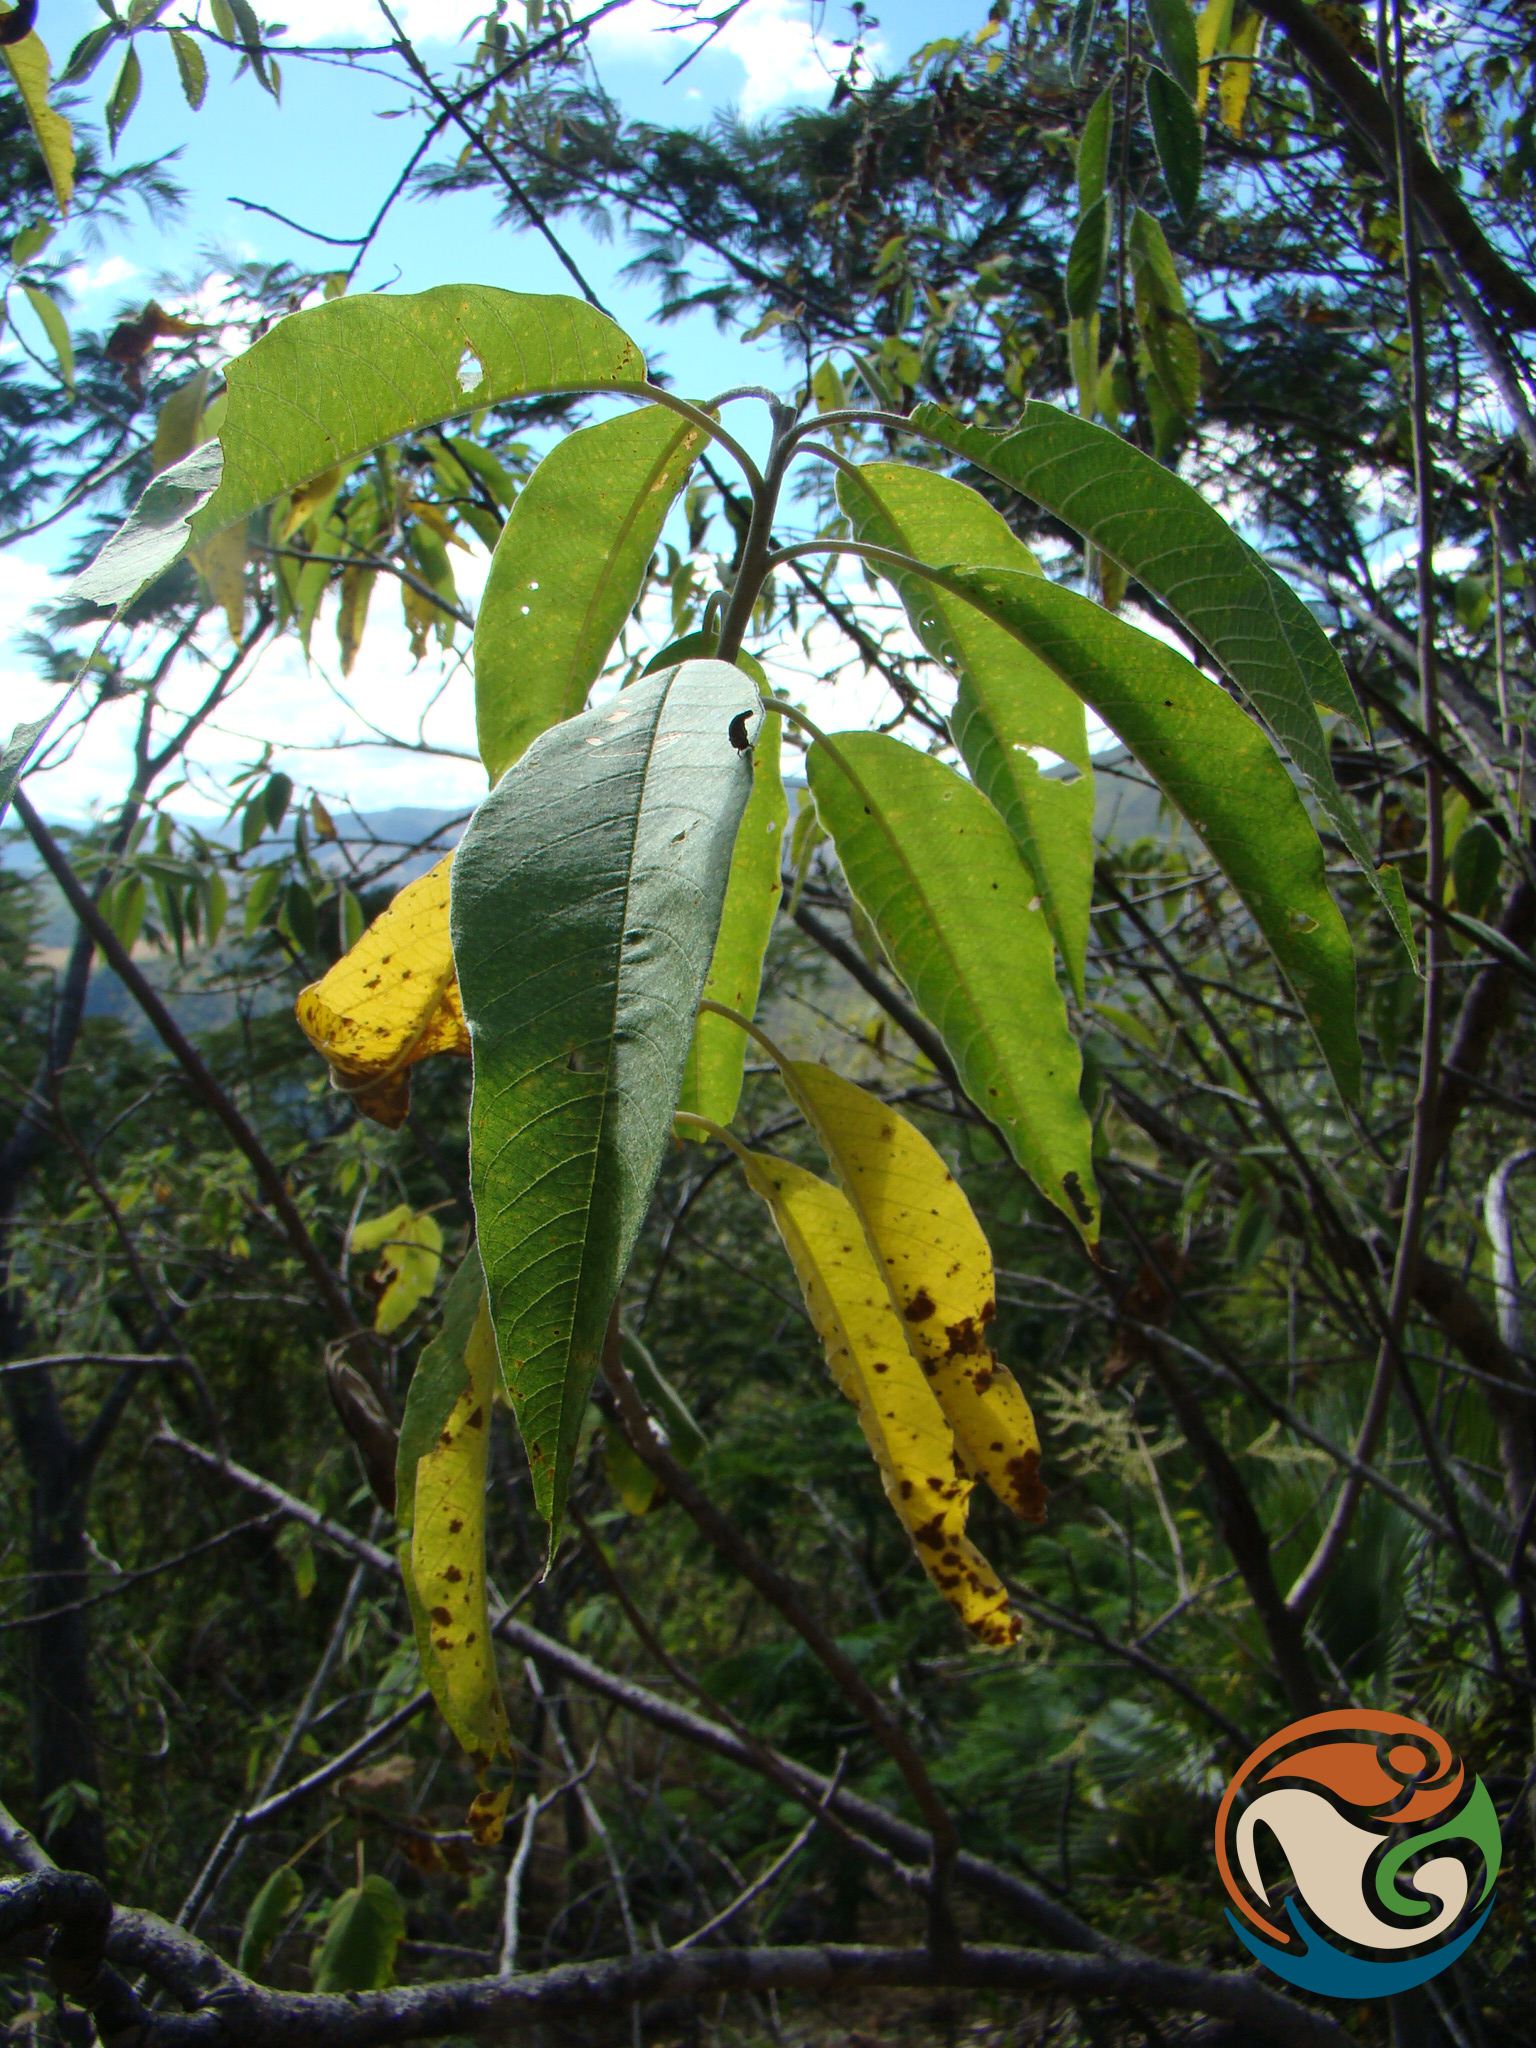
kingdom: Plantae
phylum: Tracheophyta
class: Magnoliopsida
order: Solanales
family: Convolvulaceae
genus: Ipomoea
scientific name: Ipomoea murucoides
